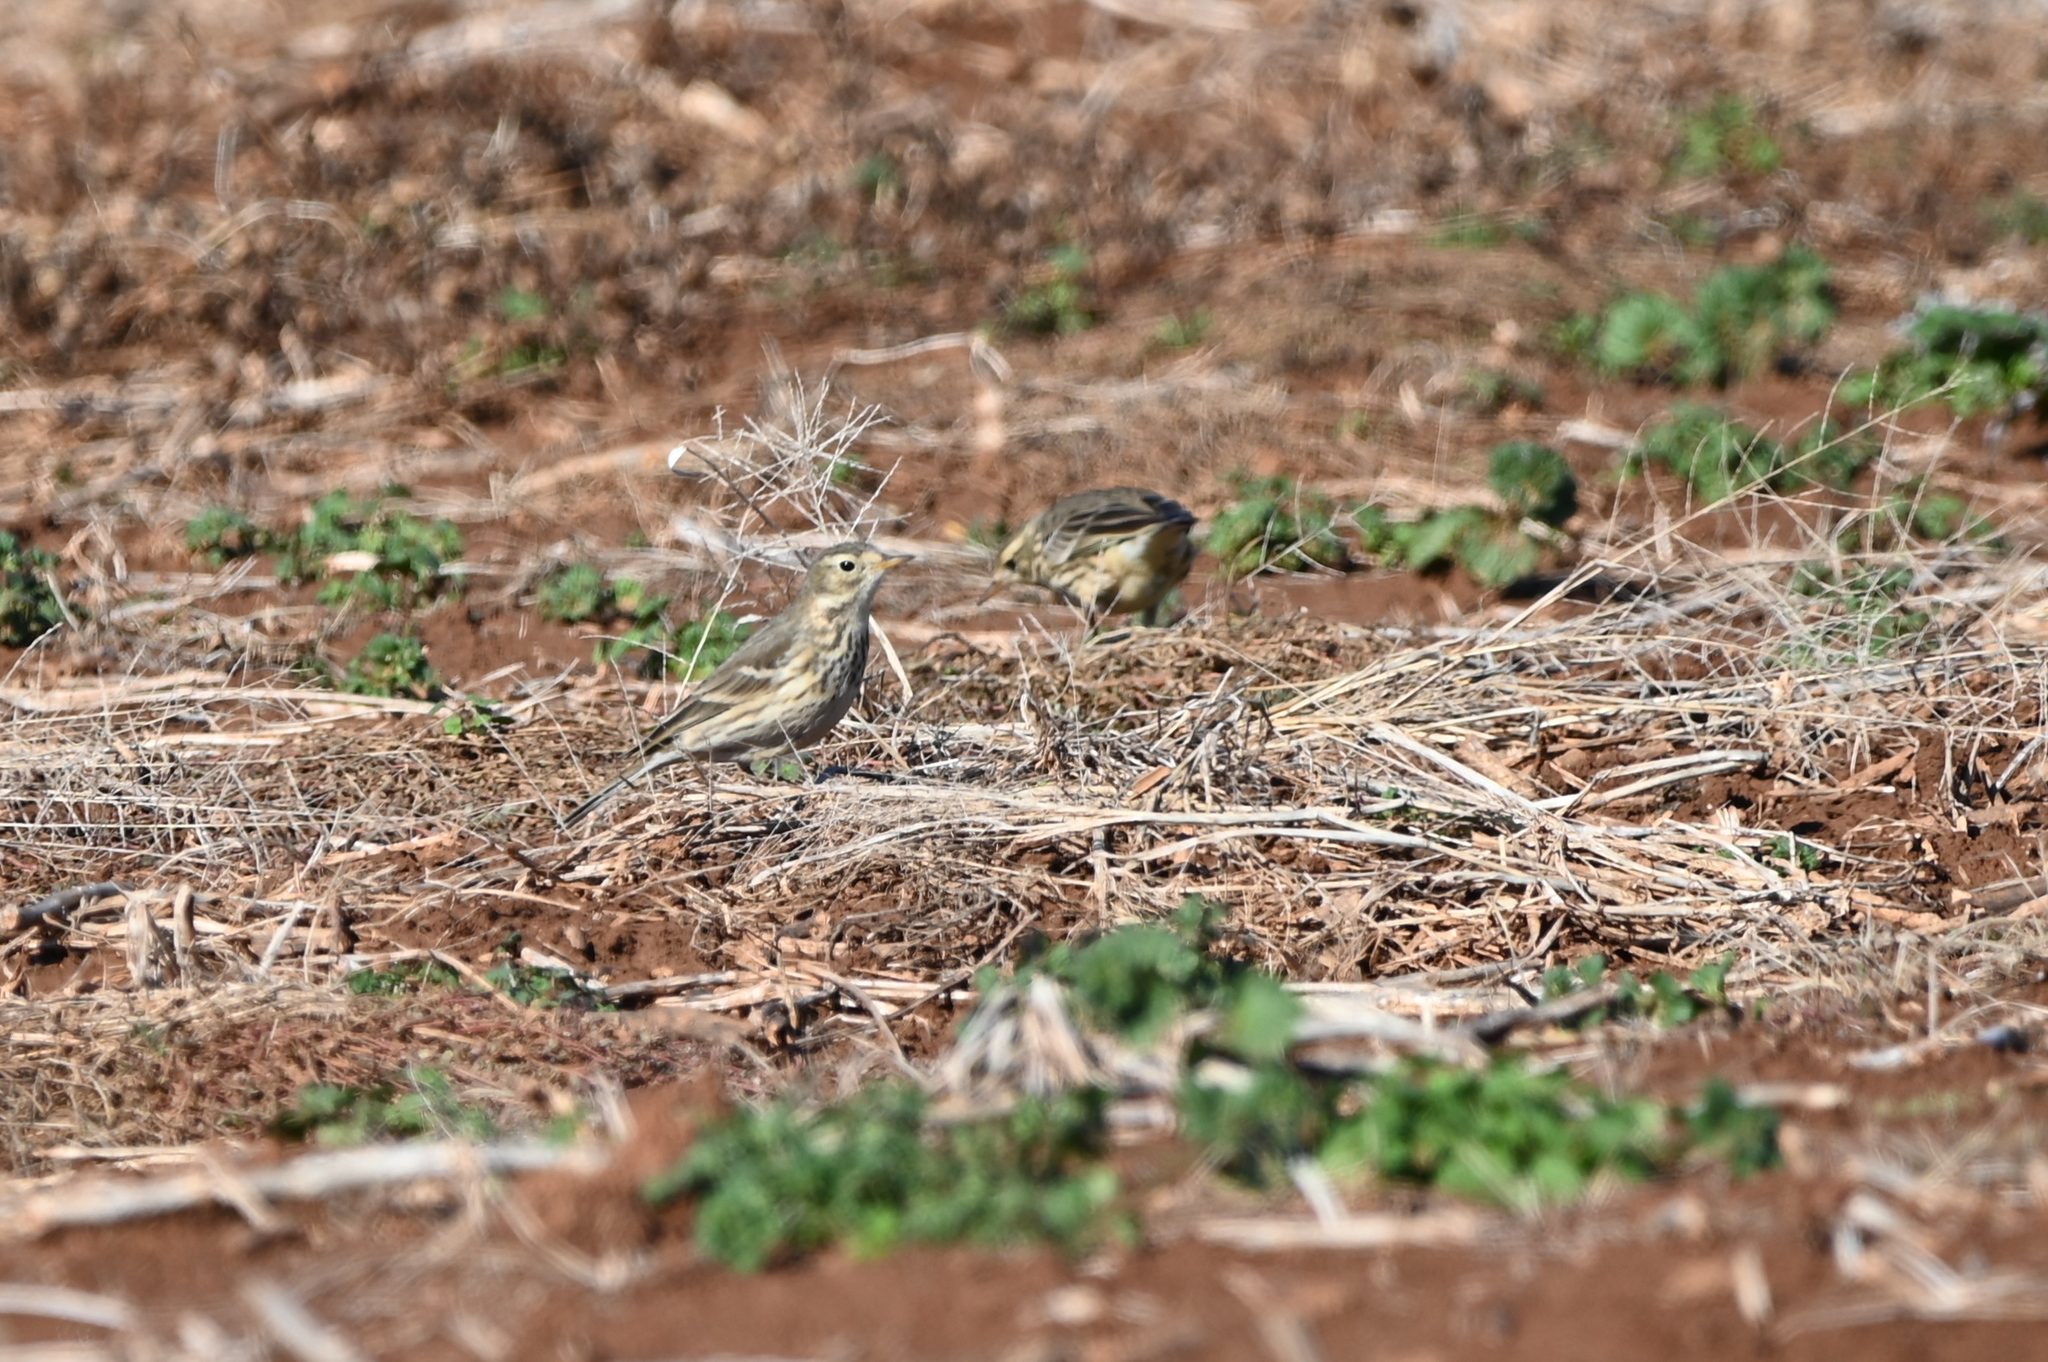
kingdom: Animalia
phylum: Chordata
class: Aves
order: Passeriformes
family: Motacillidae
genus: Anthus
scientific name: Anthus rubescens
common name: Buff-bellied pipit
